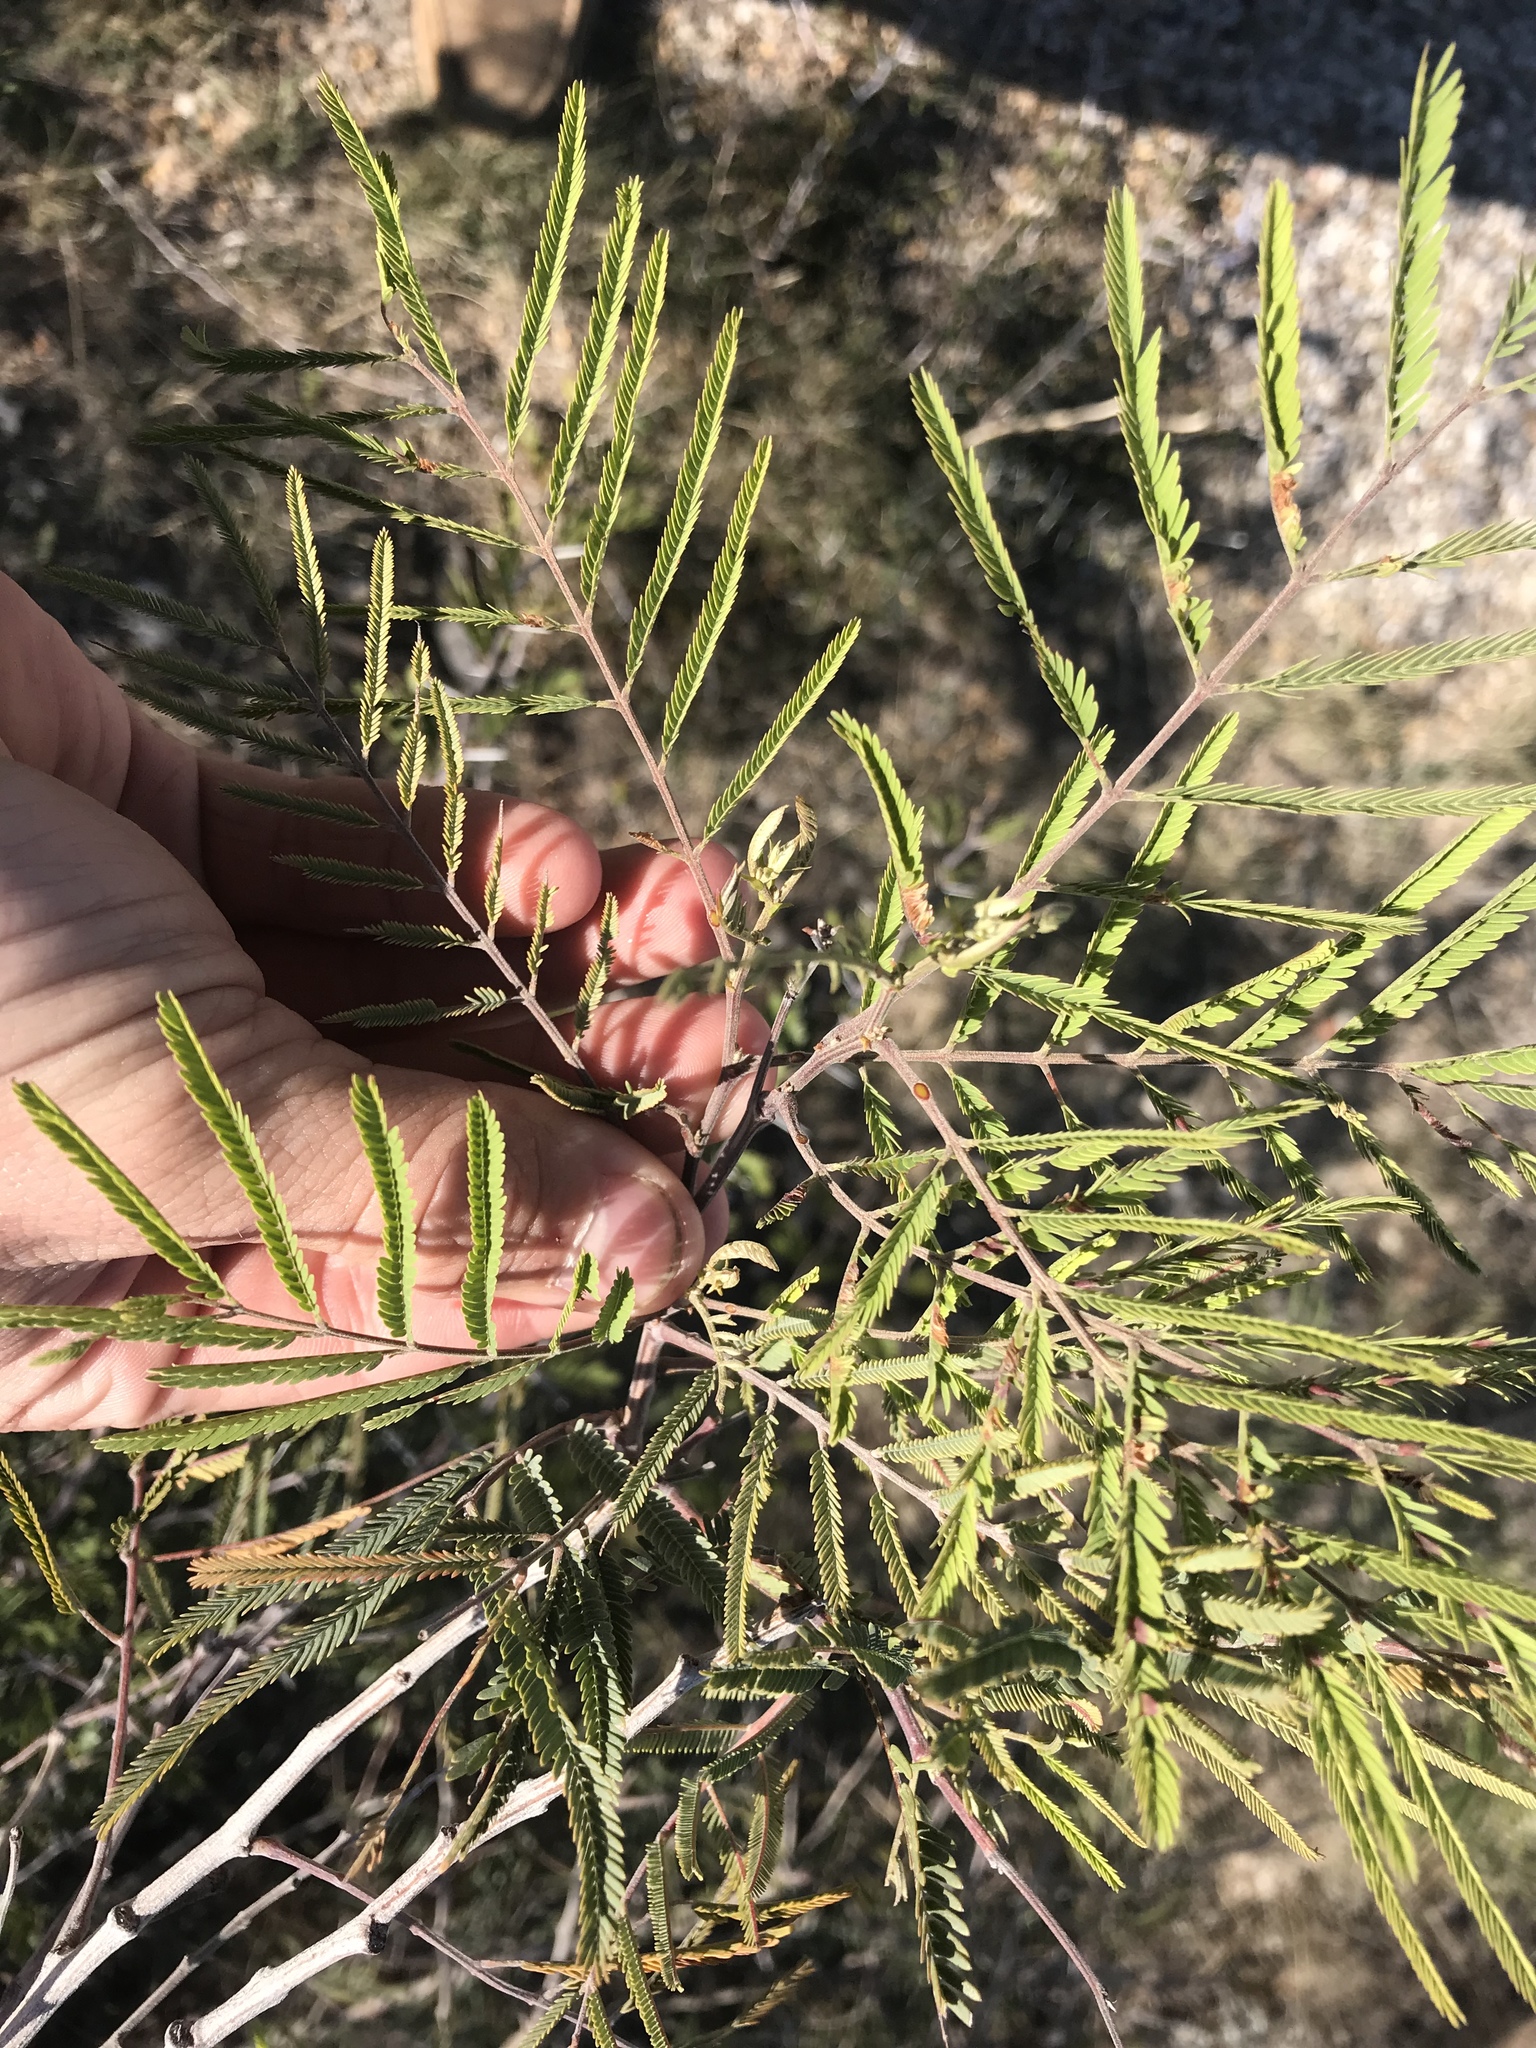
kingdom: Plantae
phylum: Tracheophyta
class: Magnoliopsida
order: Fabales
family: Fabaceae
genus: Senegalia
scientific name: Senegalia berlandieri
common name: Berlandier acacia
